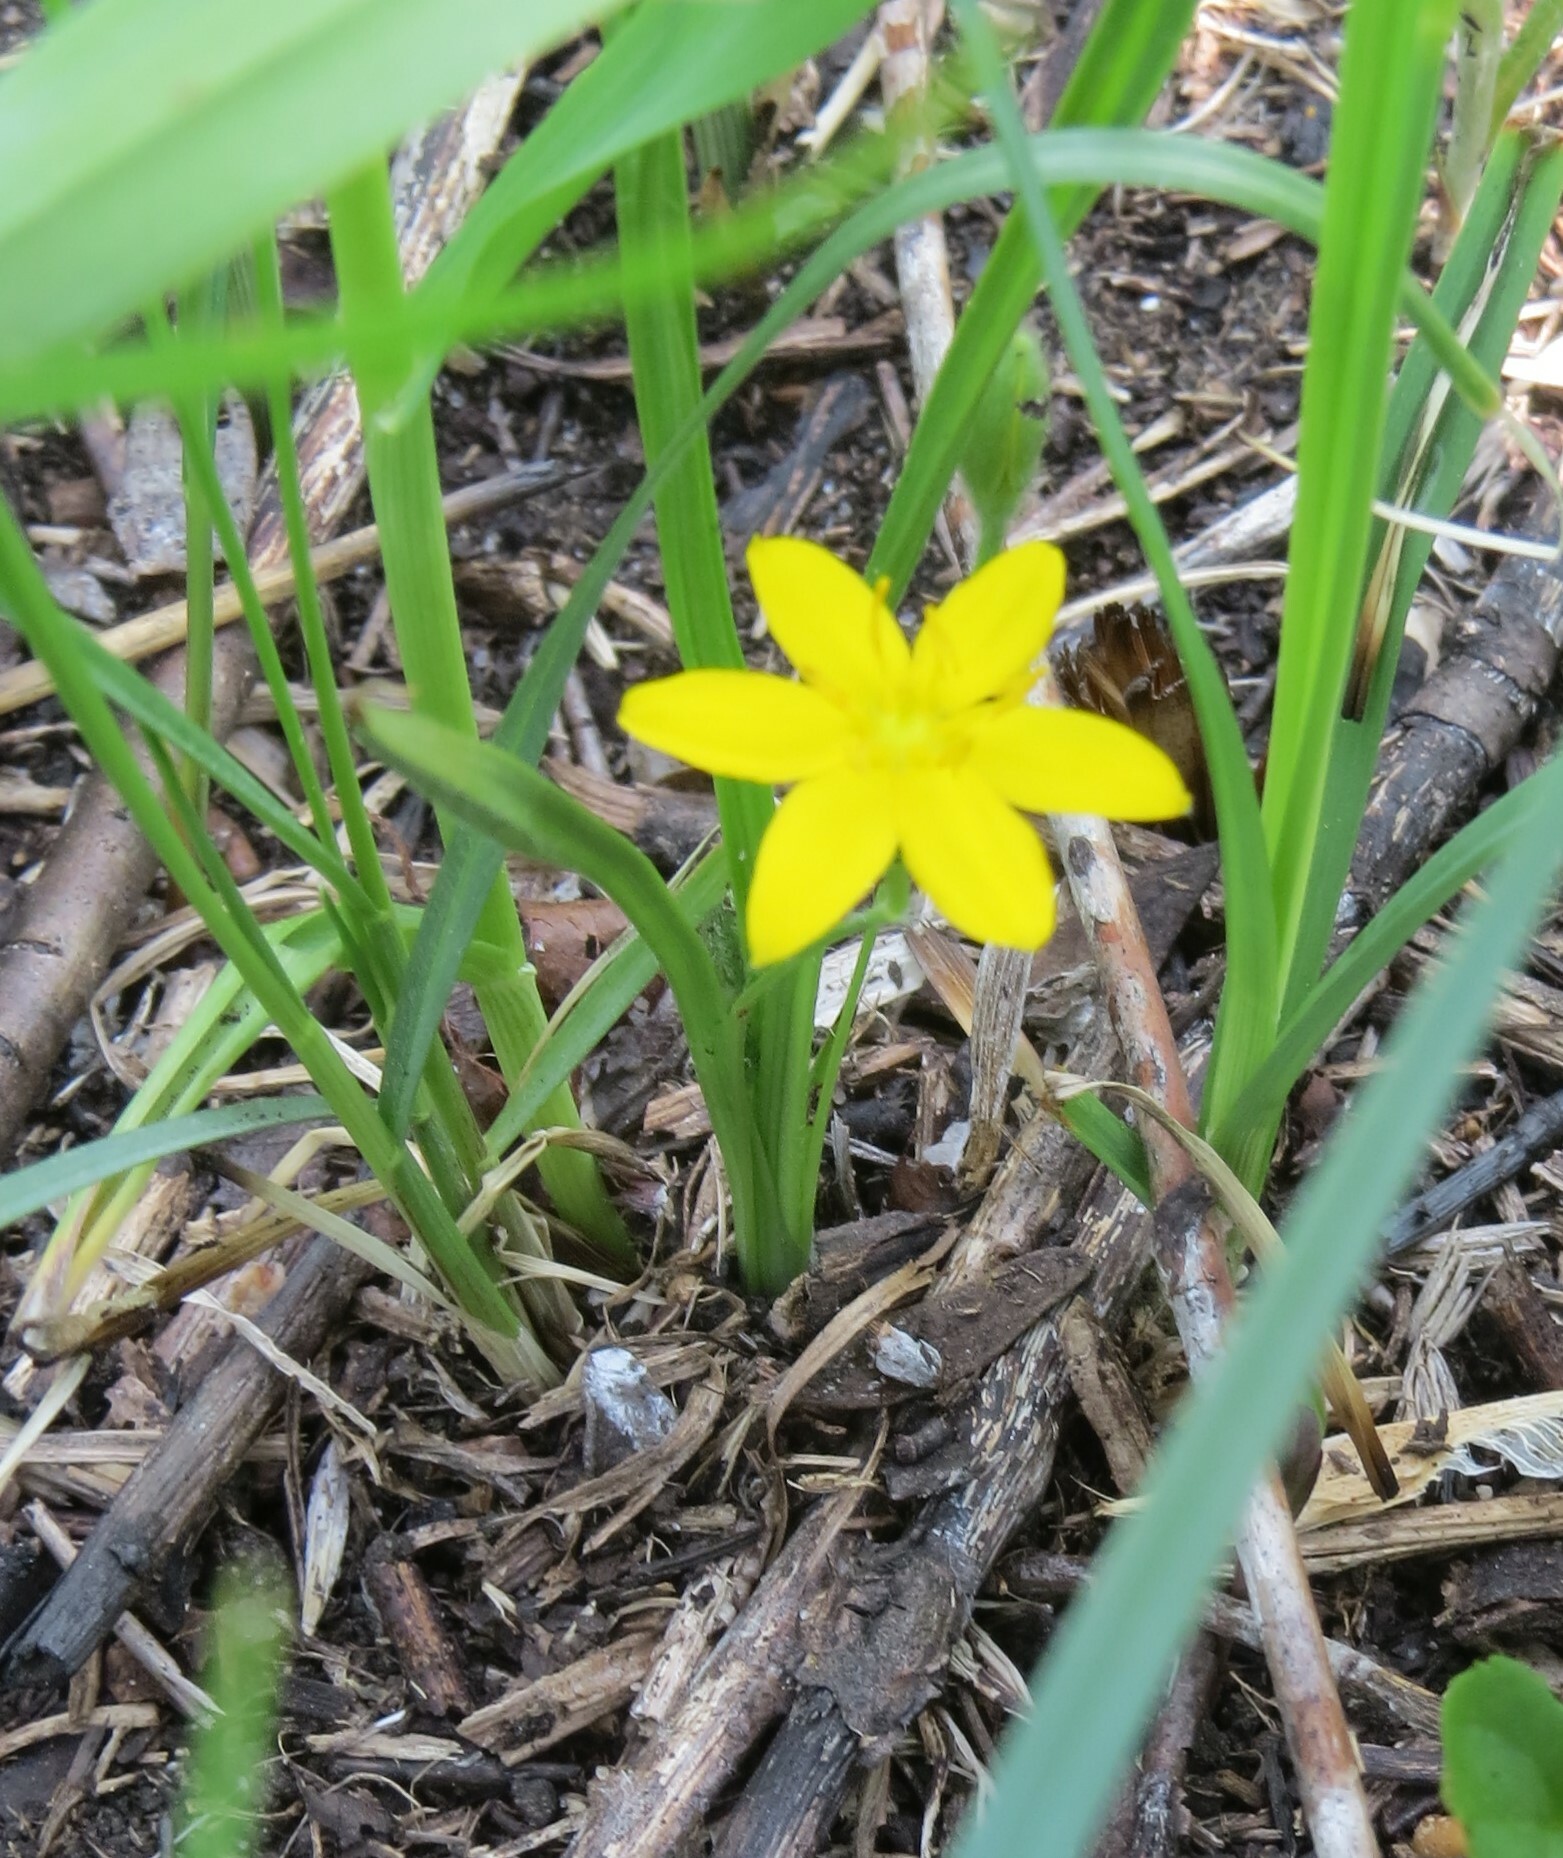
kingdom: Plantae
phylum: Tracheophyta
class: Liliopsida
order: Asparagales
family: Hypoxidaceae
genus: Hypoxis
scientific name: Hypoxis hirsuta
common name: Common goldstar
